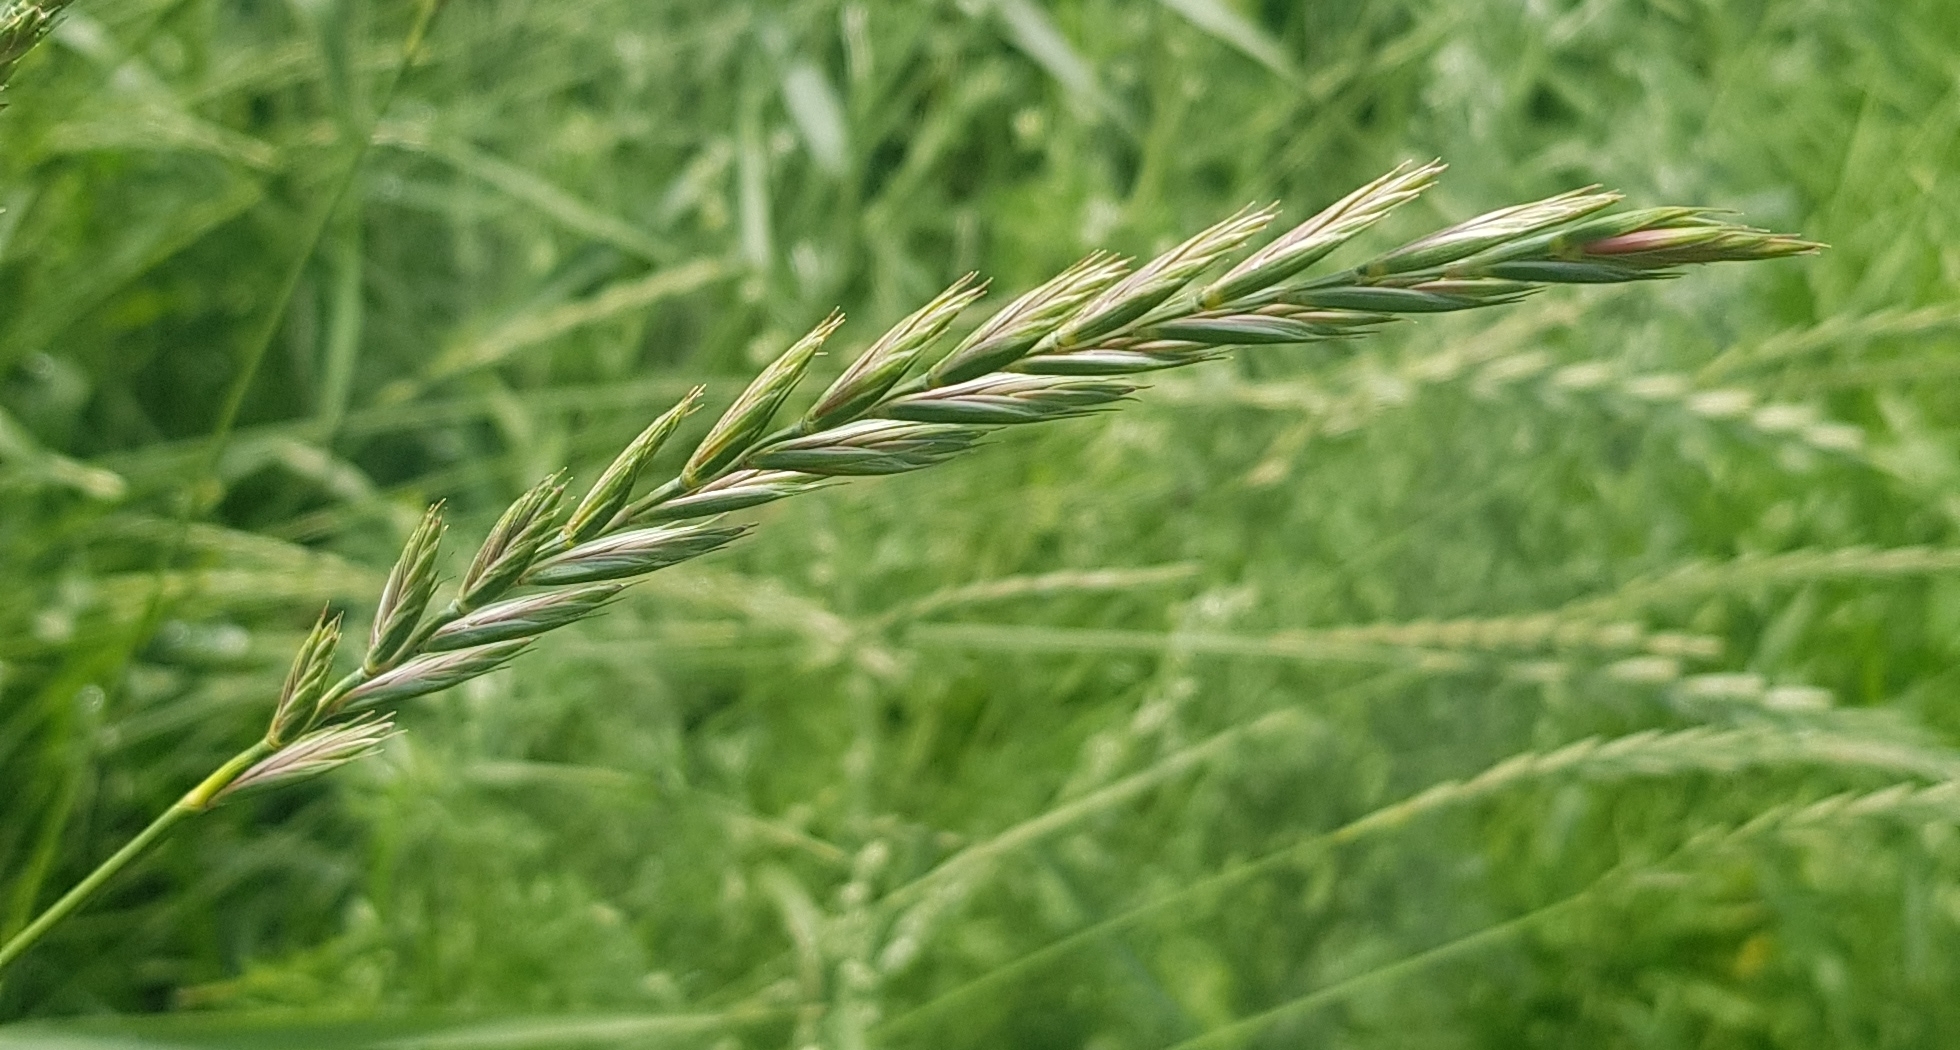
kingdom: Plantae
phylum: Tracheophyta
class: Liliopsida
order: Poales
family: Poaceae
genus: Elymus
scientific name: Elymus repens
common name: Quackgrass
